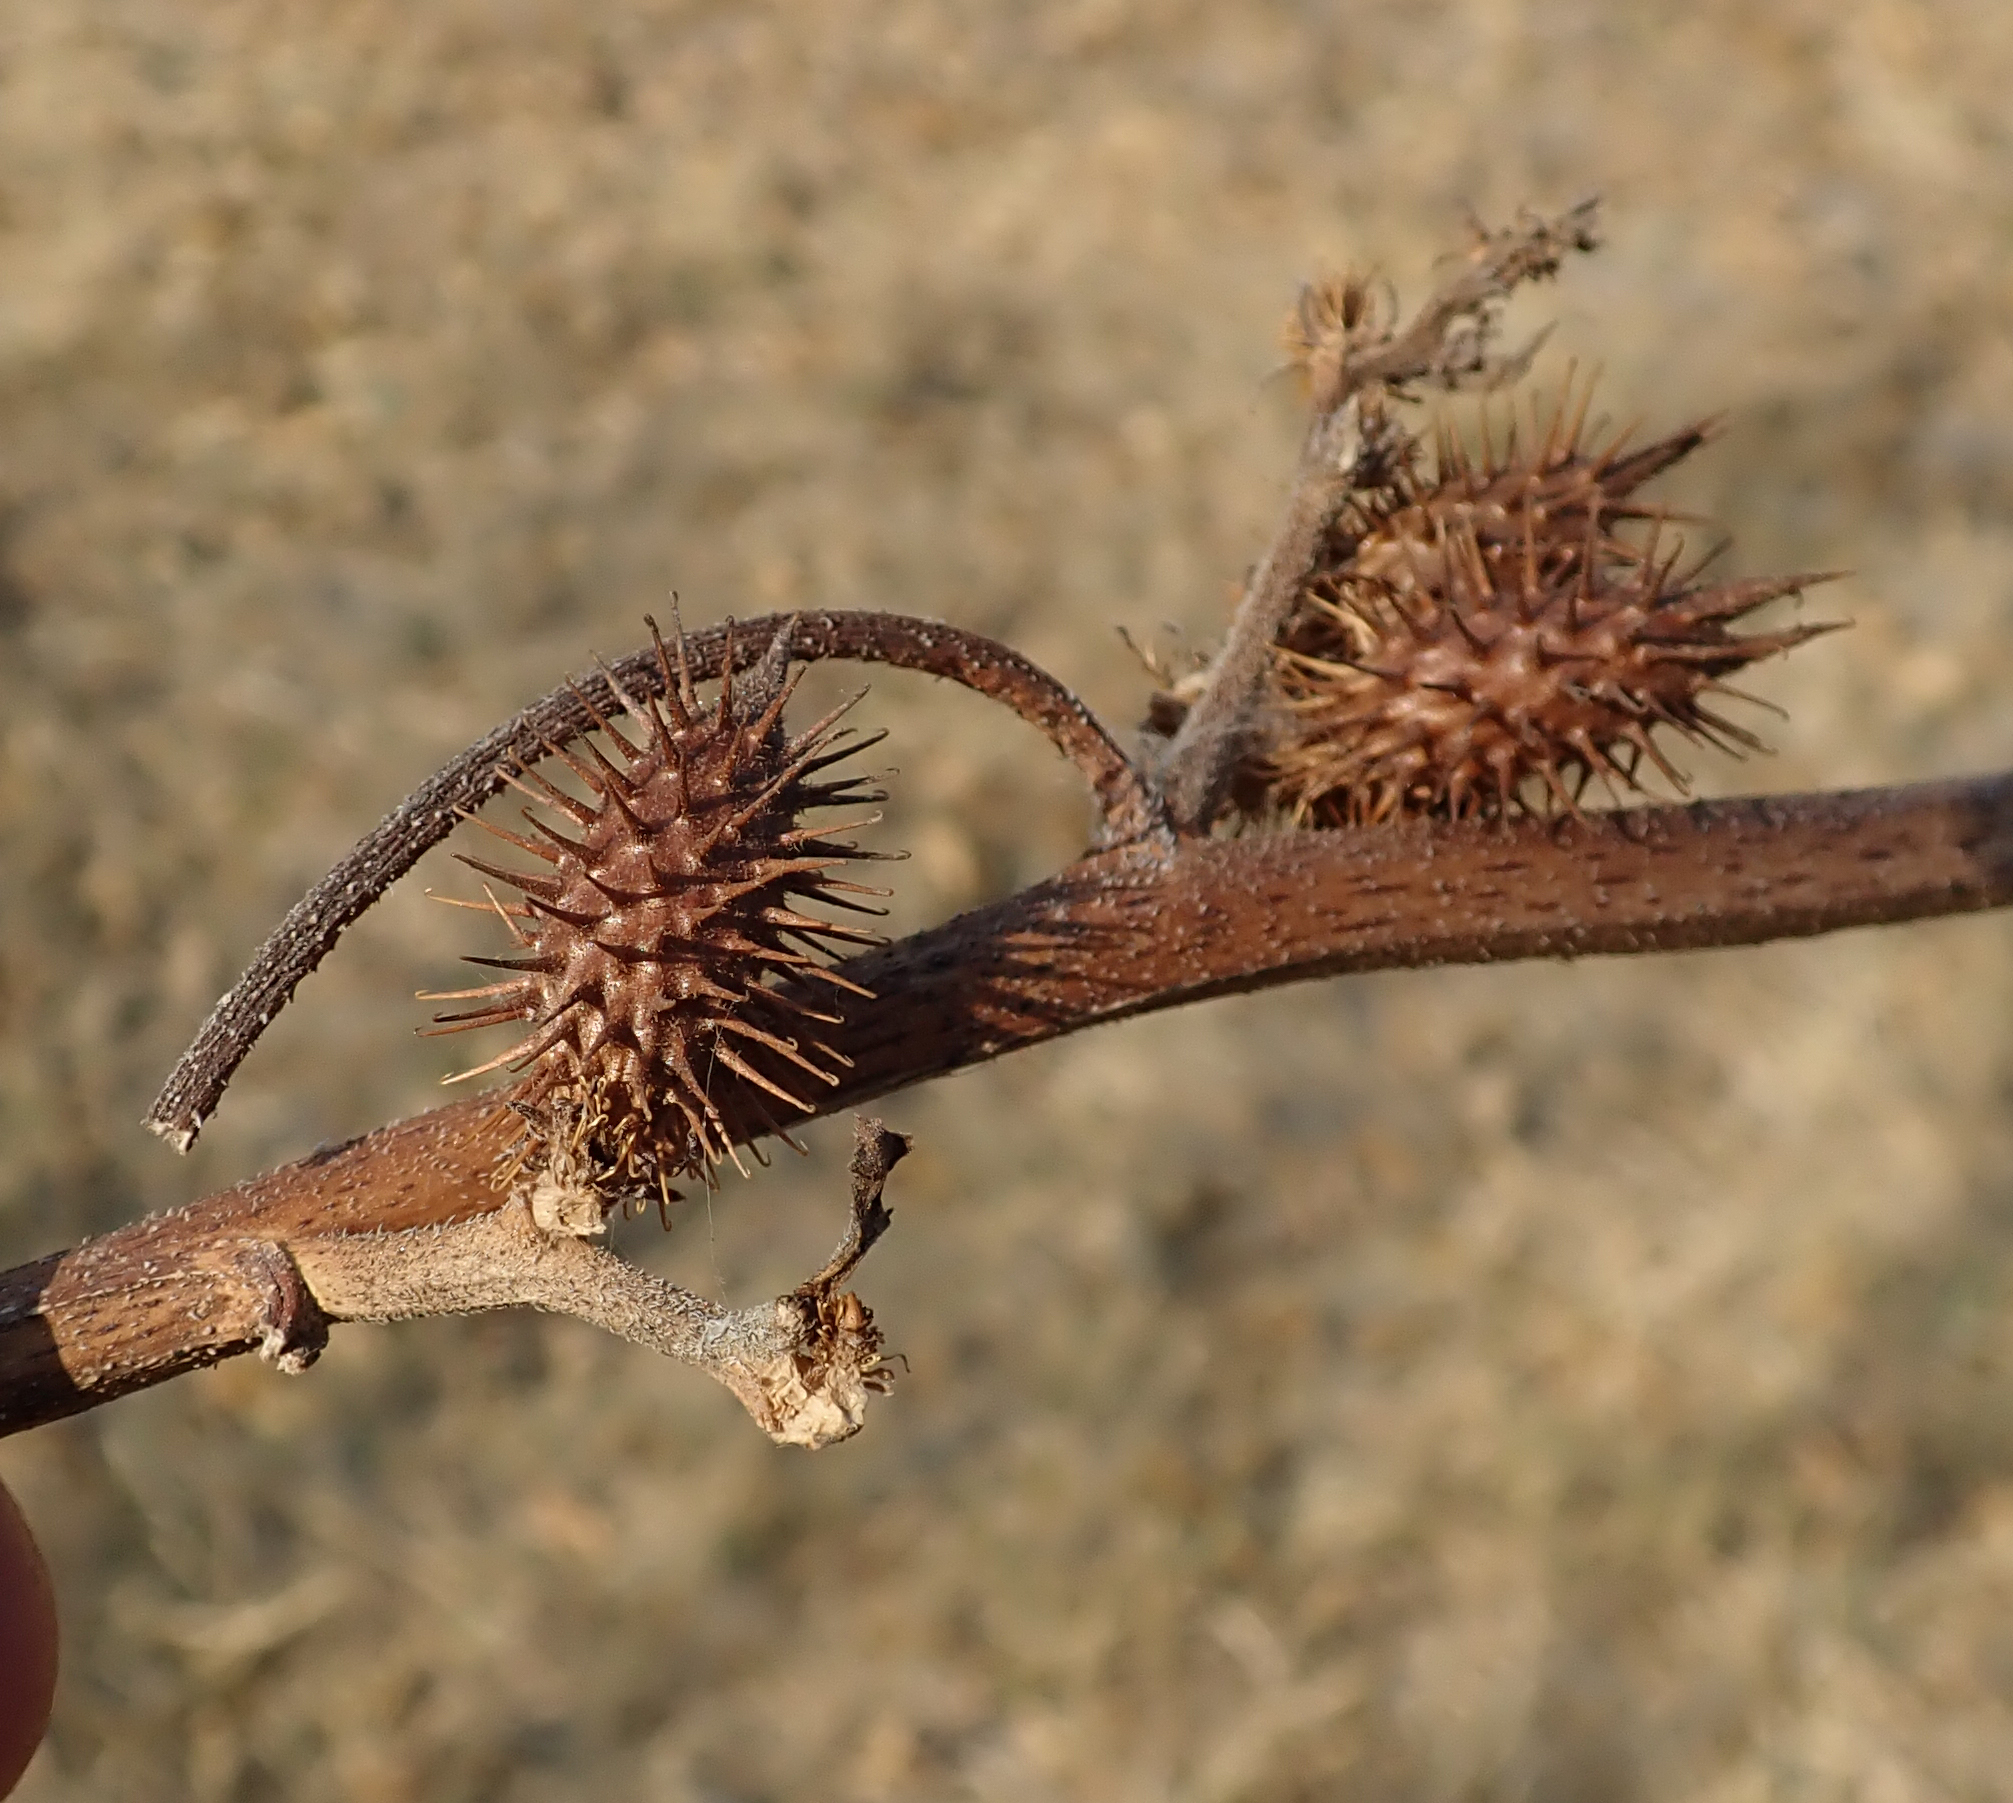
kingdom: Plantae
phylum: Tracheophyta
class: Magnoliopsida
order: Asterales
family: Asteraceae
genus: Xanthium
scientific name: Xanthium strumarium
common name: Rough cocklebur
